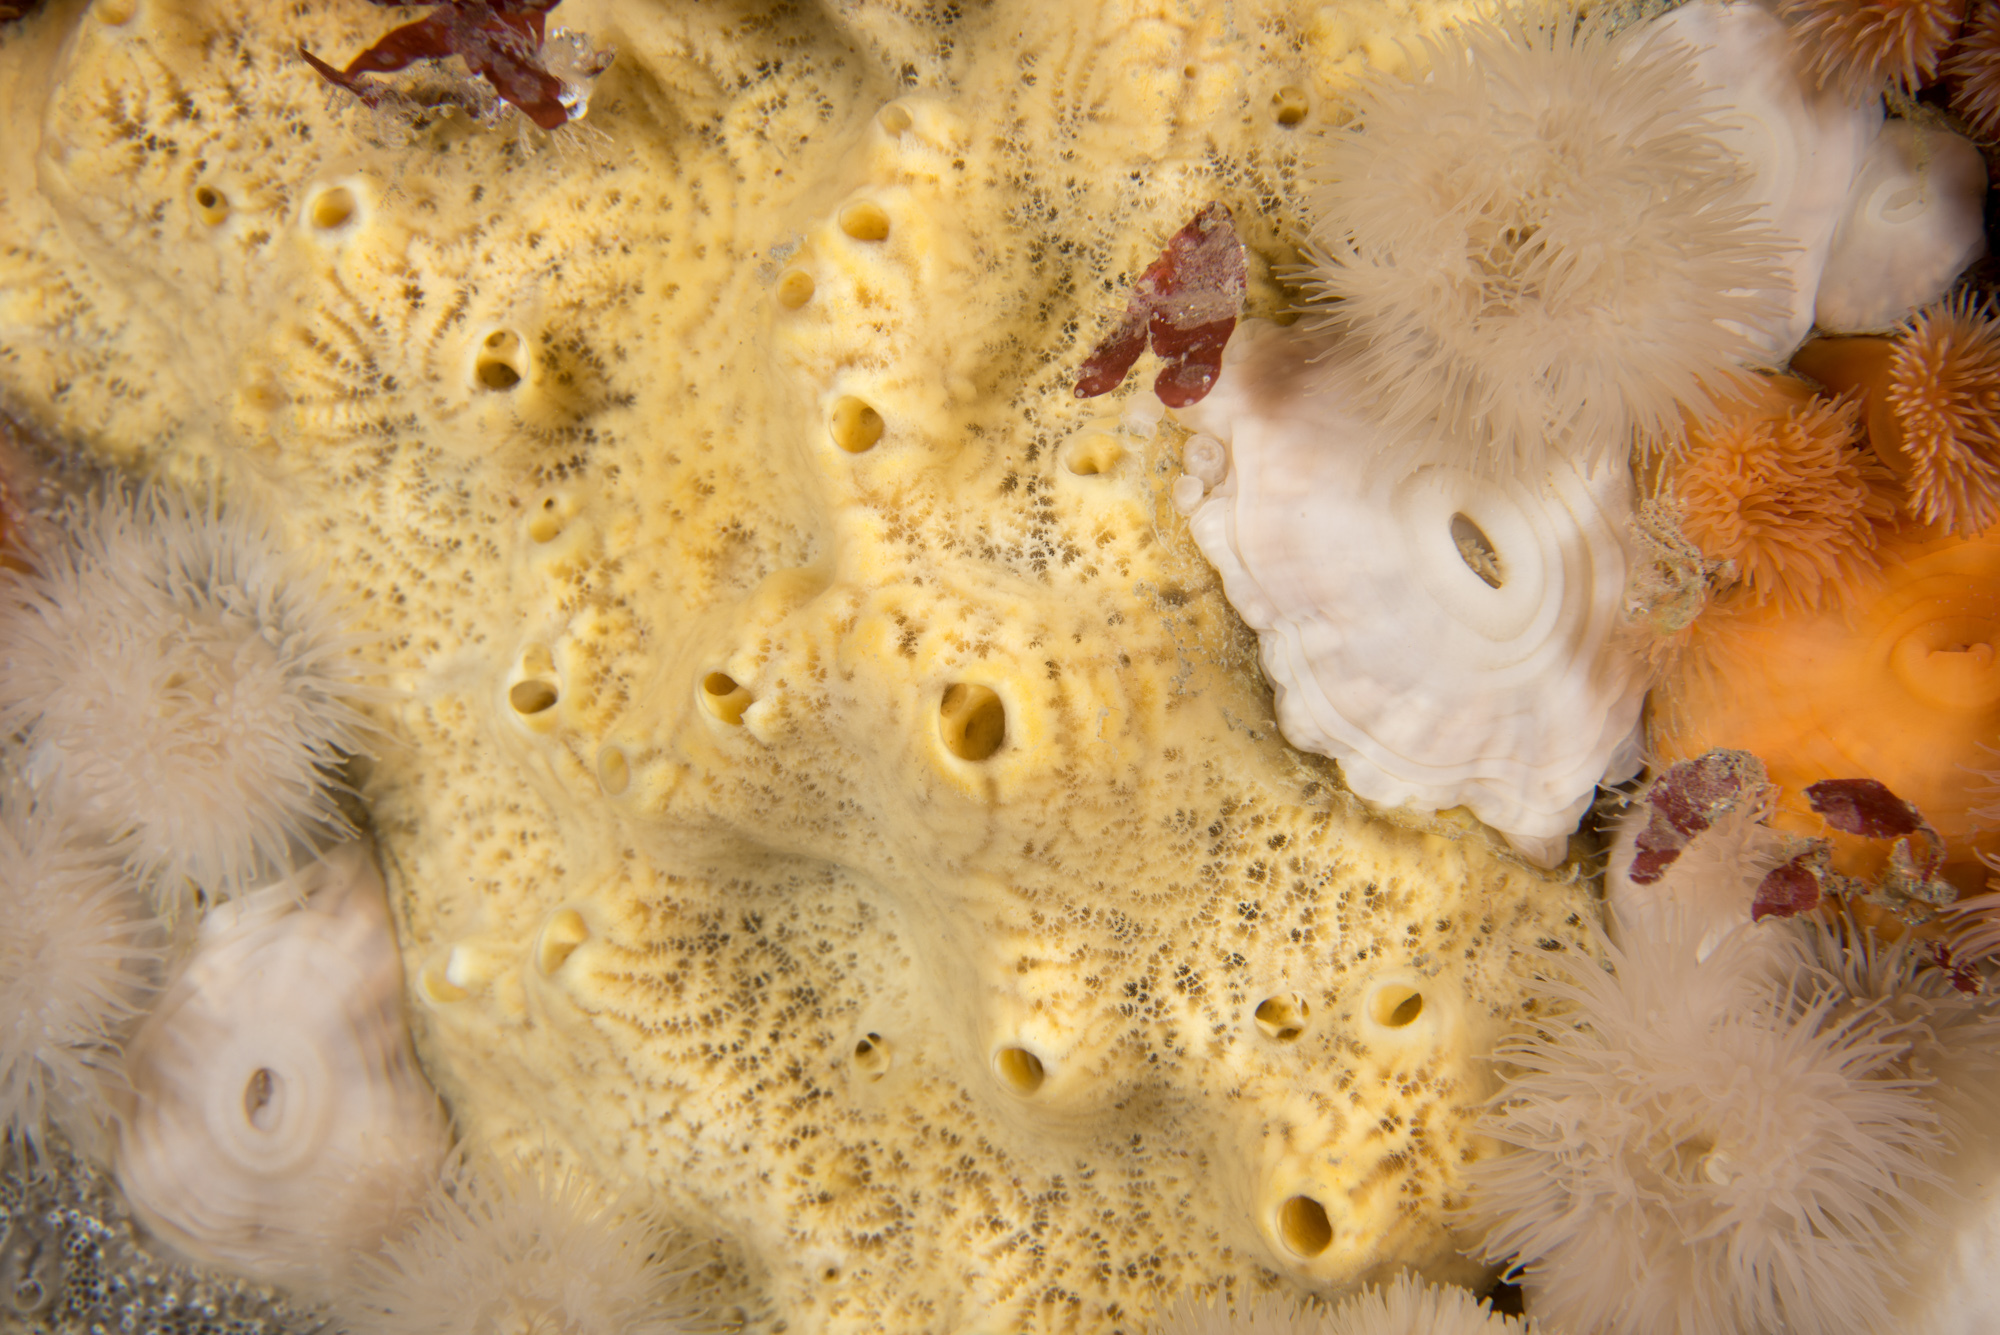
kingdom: Animalia
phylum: Porifera
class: Demospongiae
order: Poecilosclerida
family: Myxillidae
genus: Myxilla
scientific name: Myxilla incrustans
